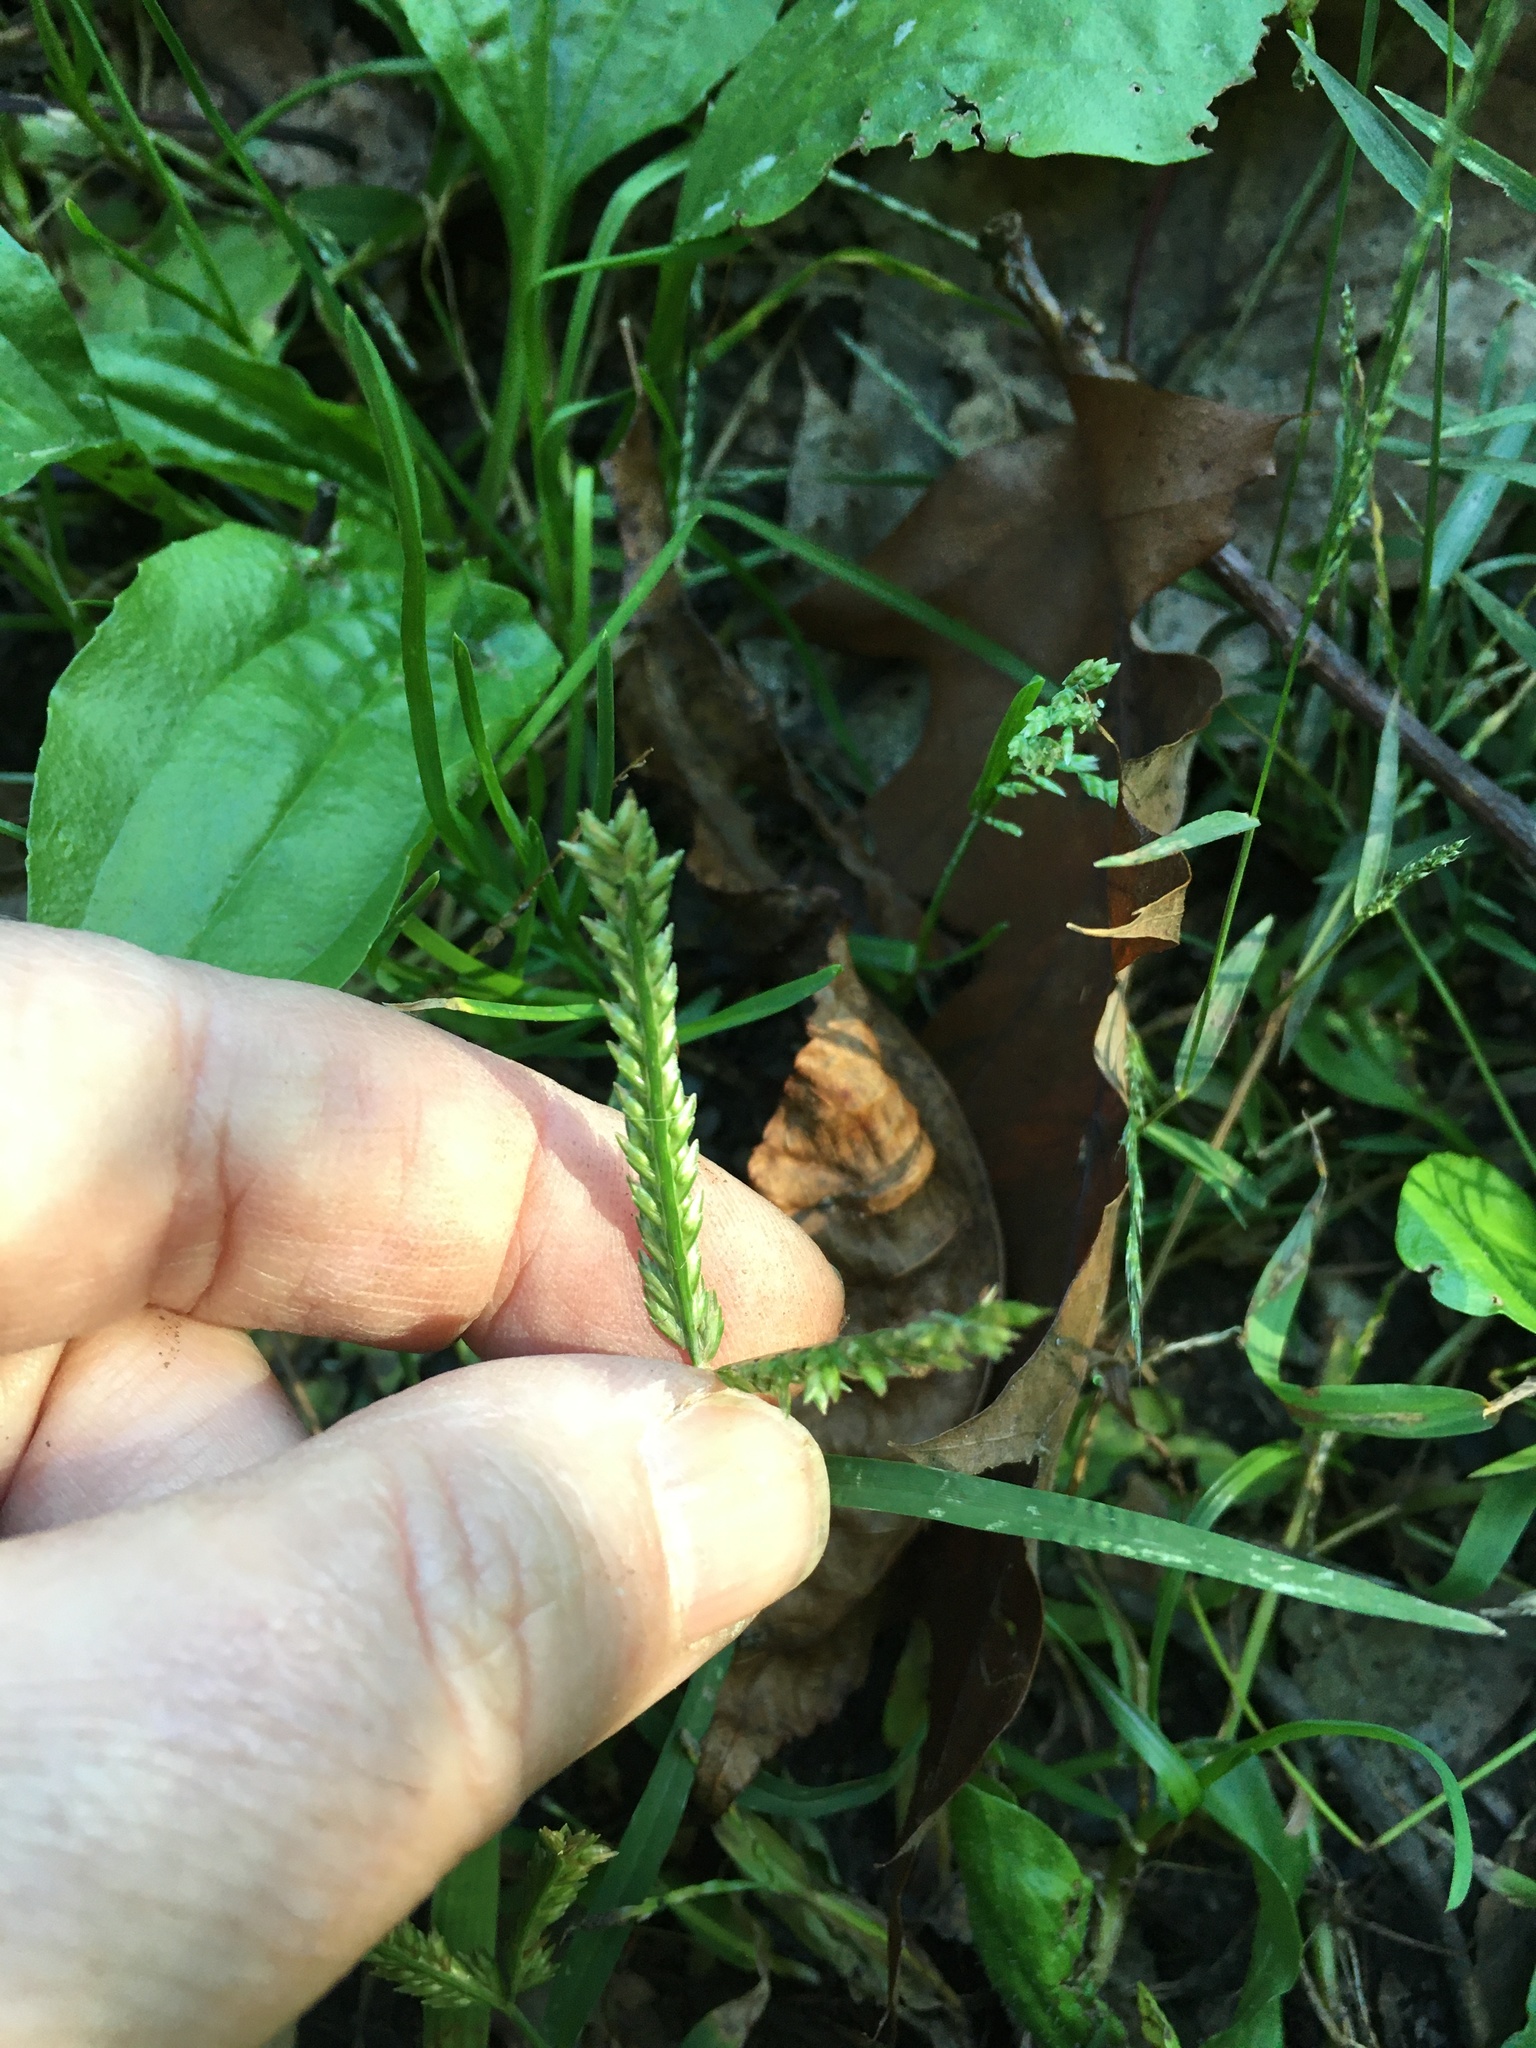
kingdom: Plantae
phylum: Tracheophyta
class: Liliopsida
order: Poales
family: Poaceae
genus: Eleusine
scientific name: Eleusine indica
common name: Yard-grass
